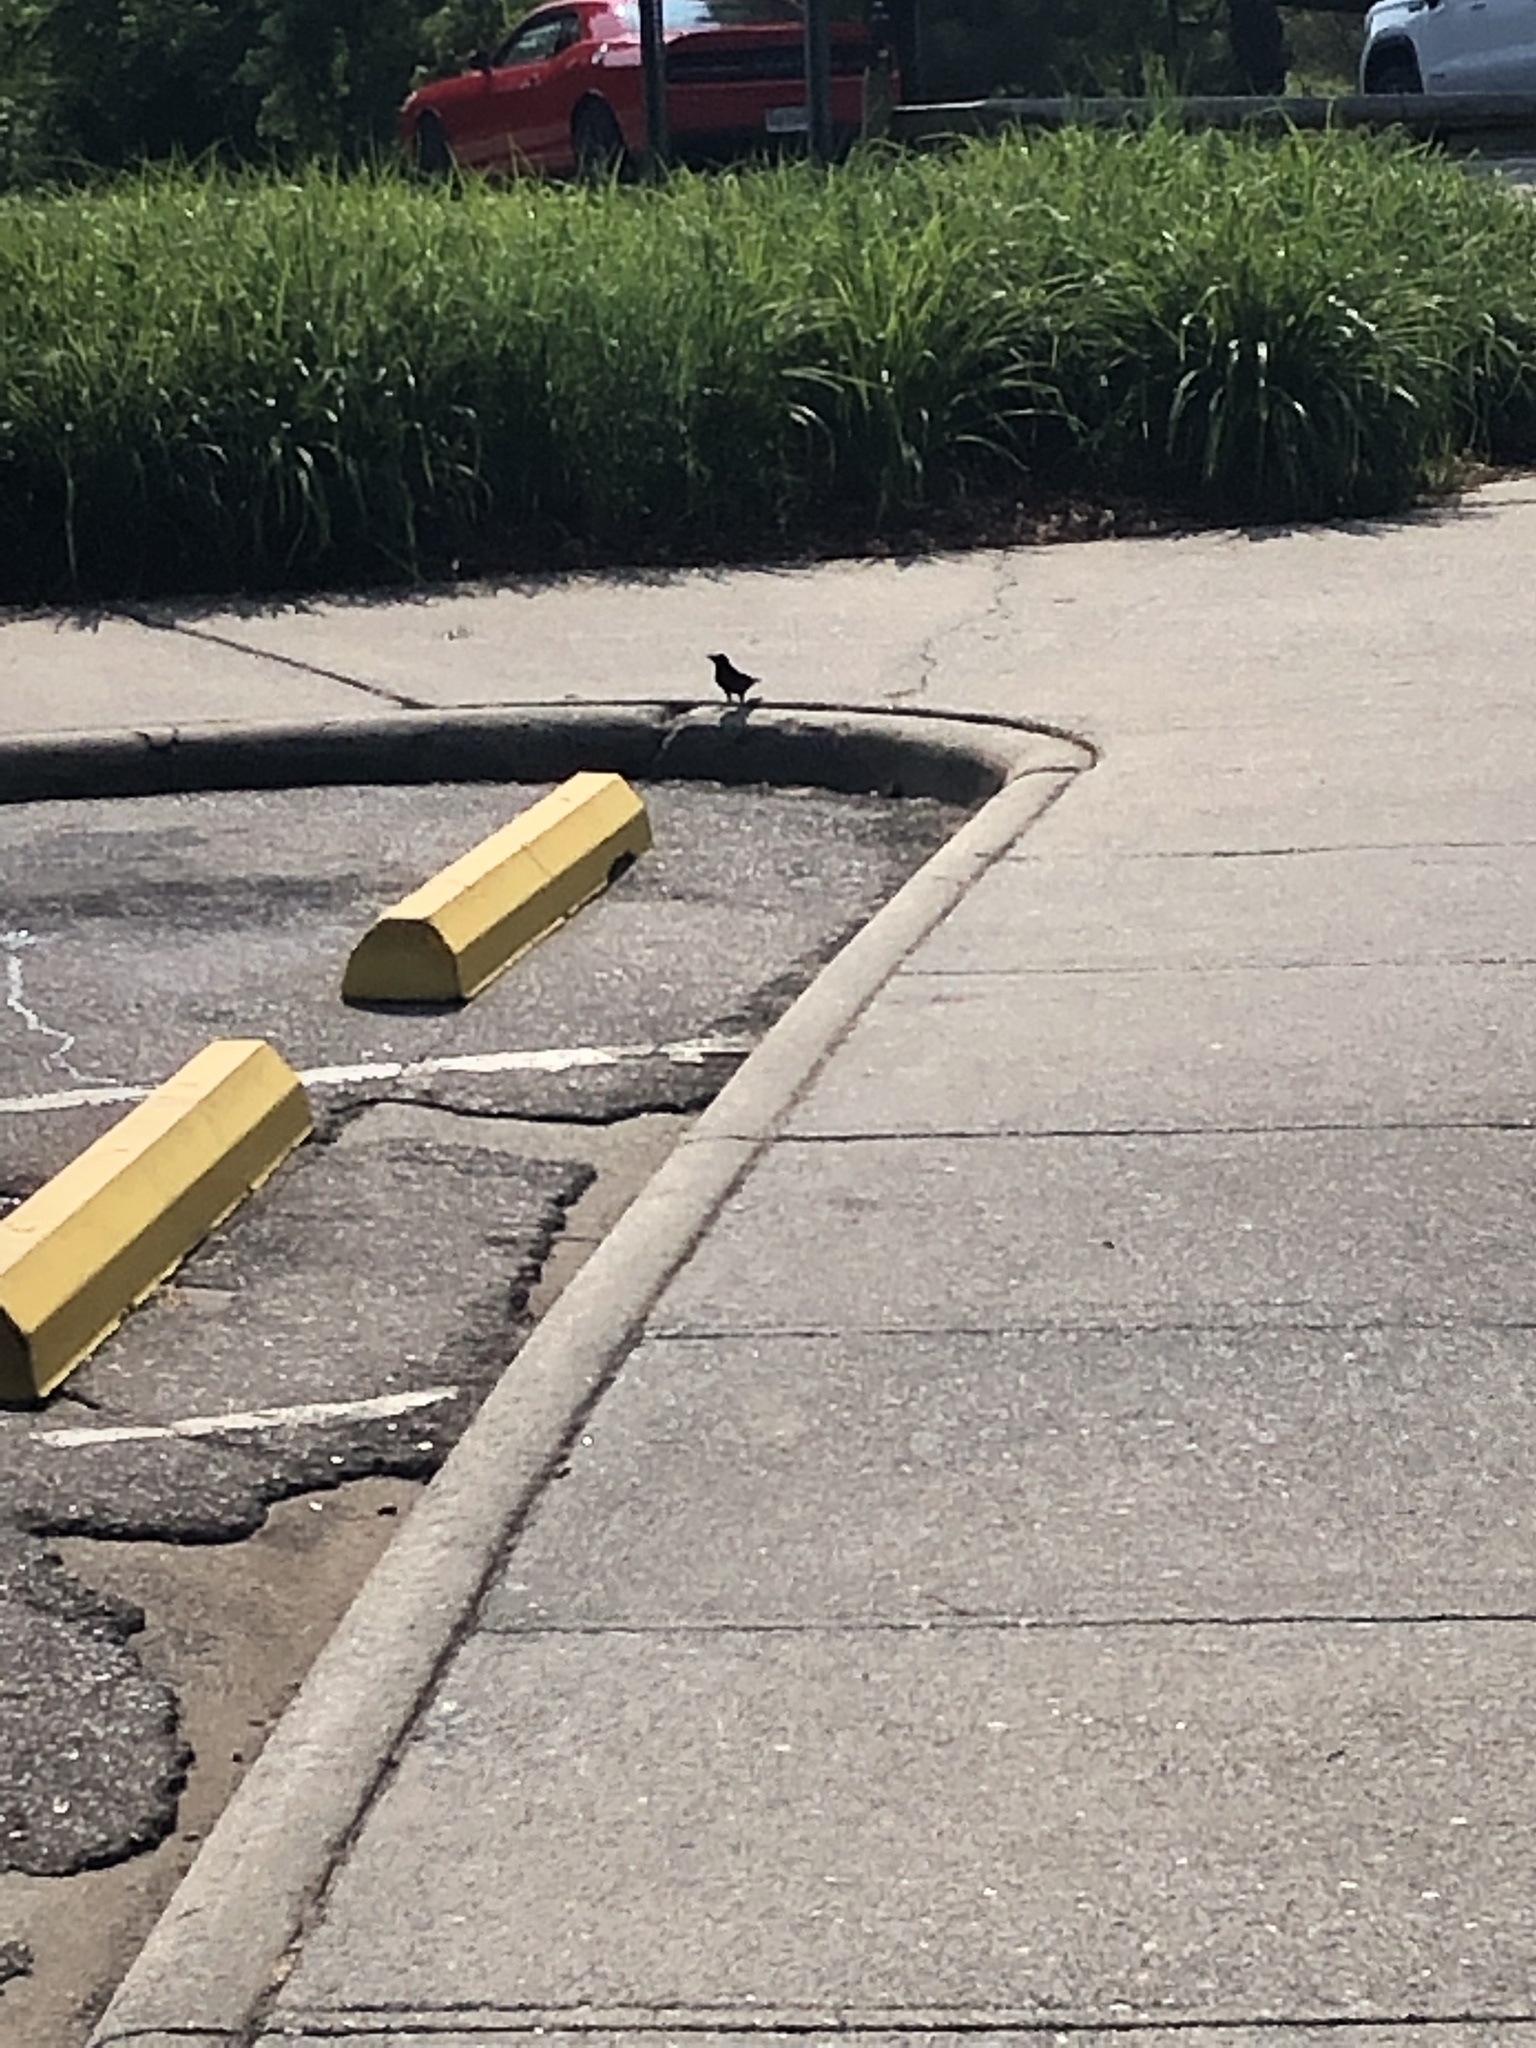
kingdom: Animalia
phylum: Chordata
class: Aves
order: Passeriformes
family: Icteridae
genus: Quiscalus
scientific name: Quiscalus quiscula
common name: Common grackle
